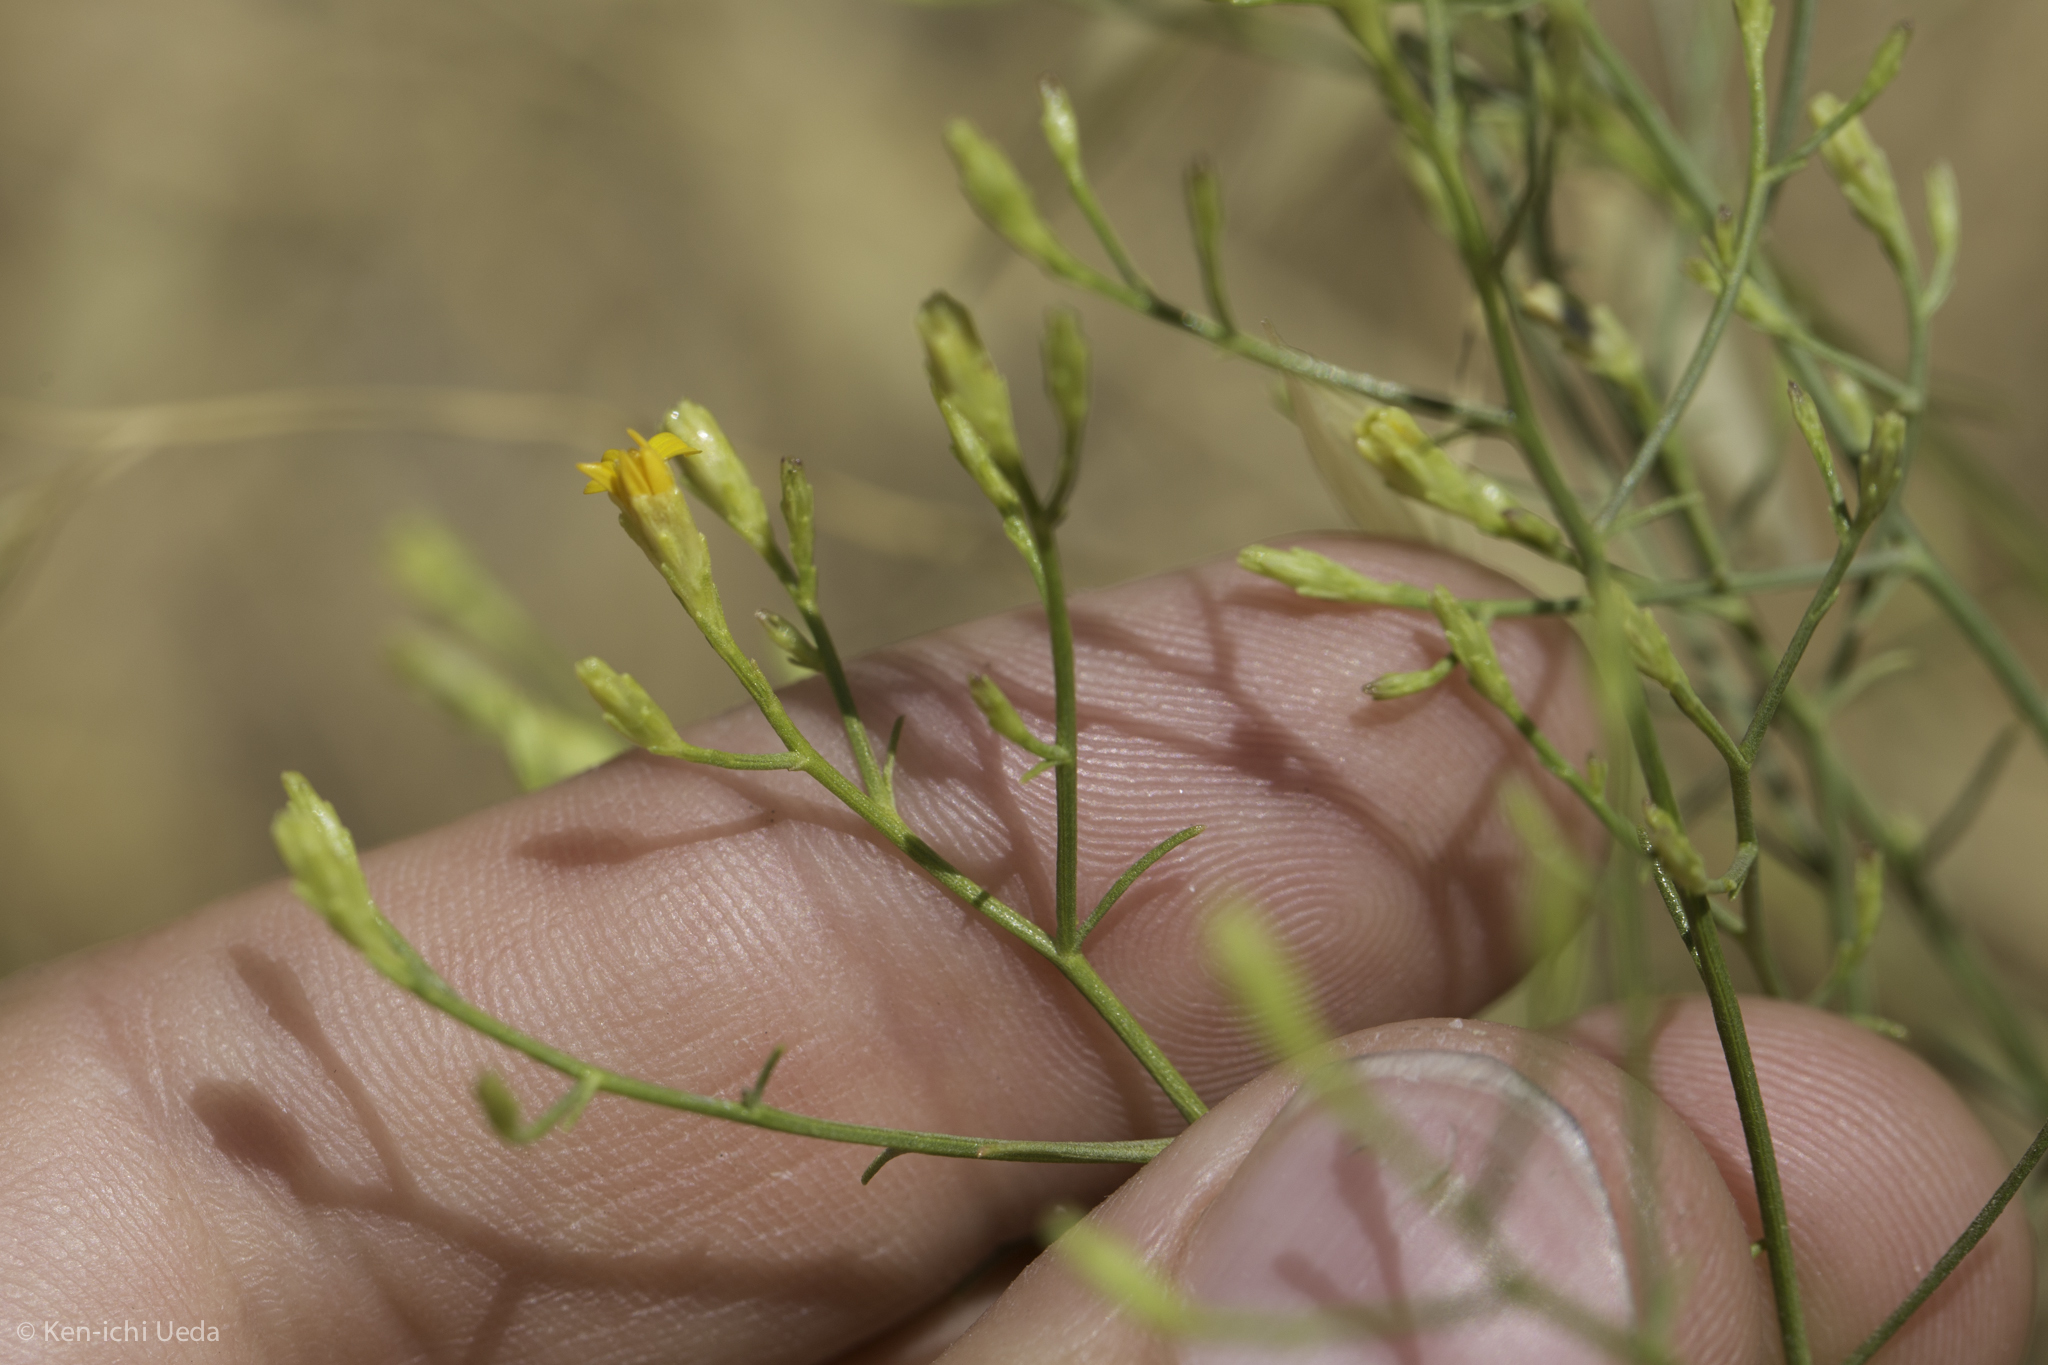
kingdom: Plantae
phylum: Tracheophyta
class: Magnoliopsida
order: Asterales
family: Asteraceae
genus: Gutierrezia
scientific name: Gutierrezia californica
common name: California matchweed
